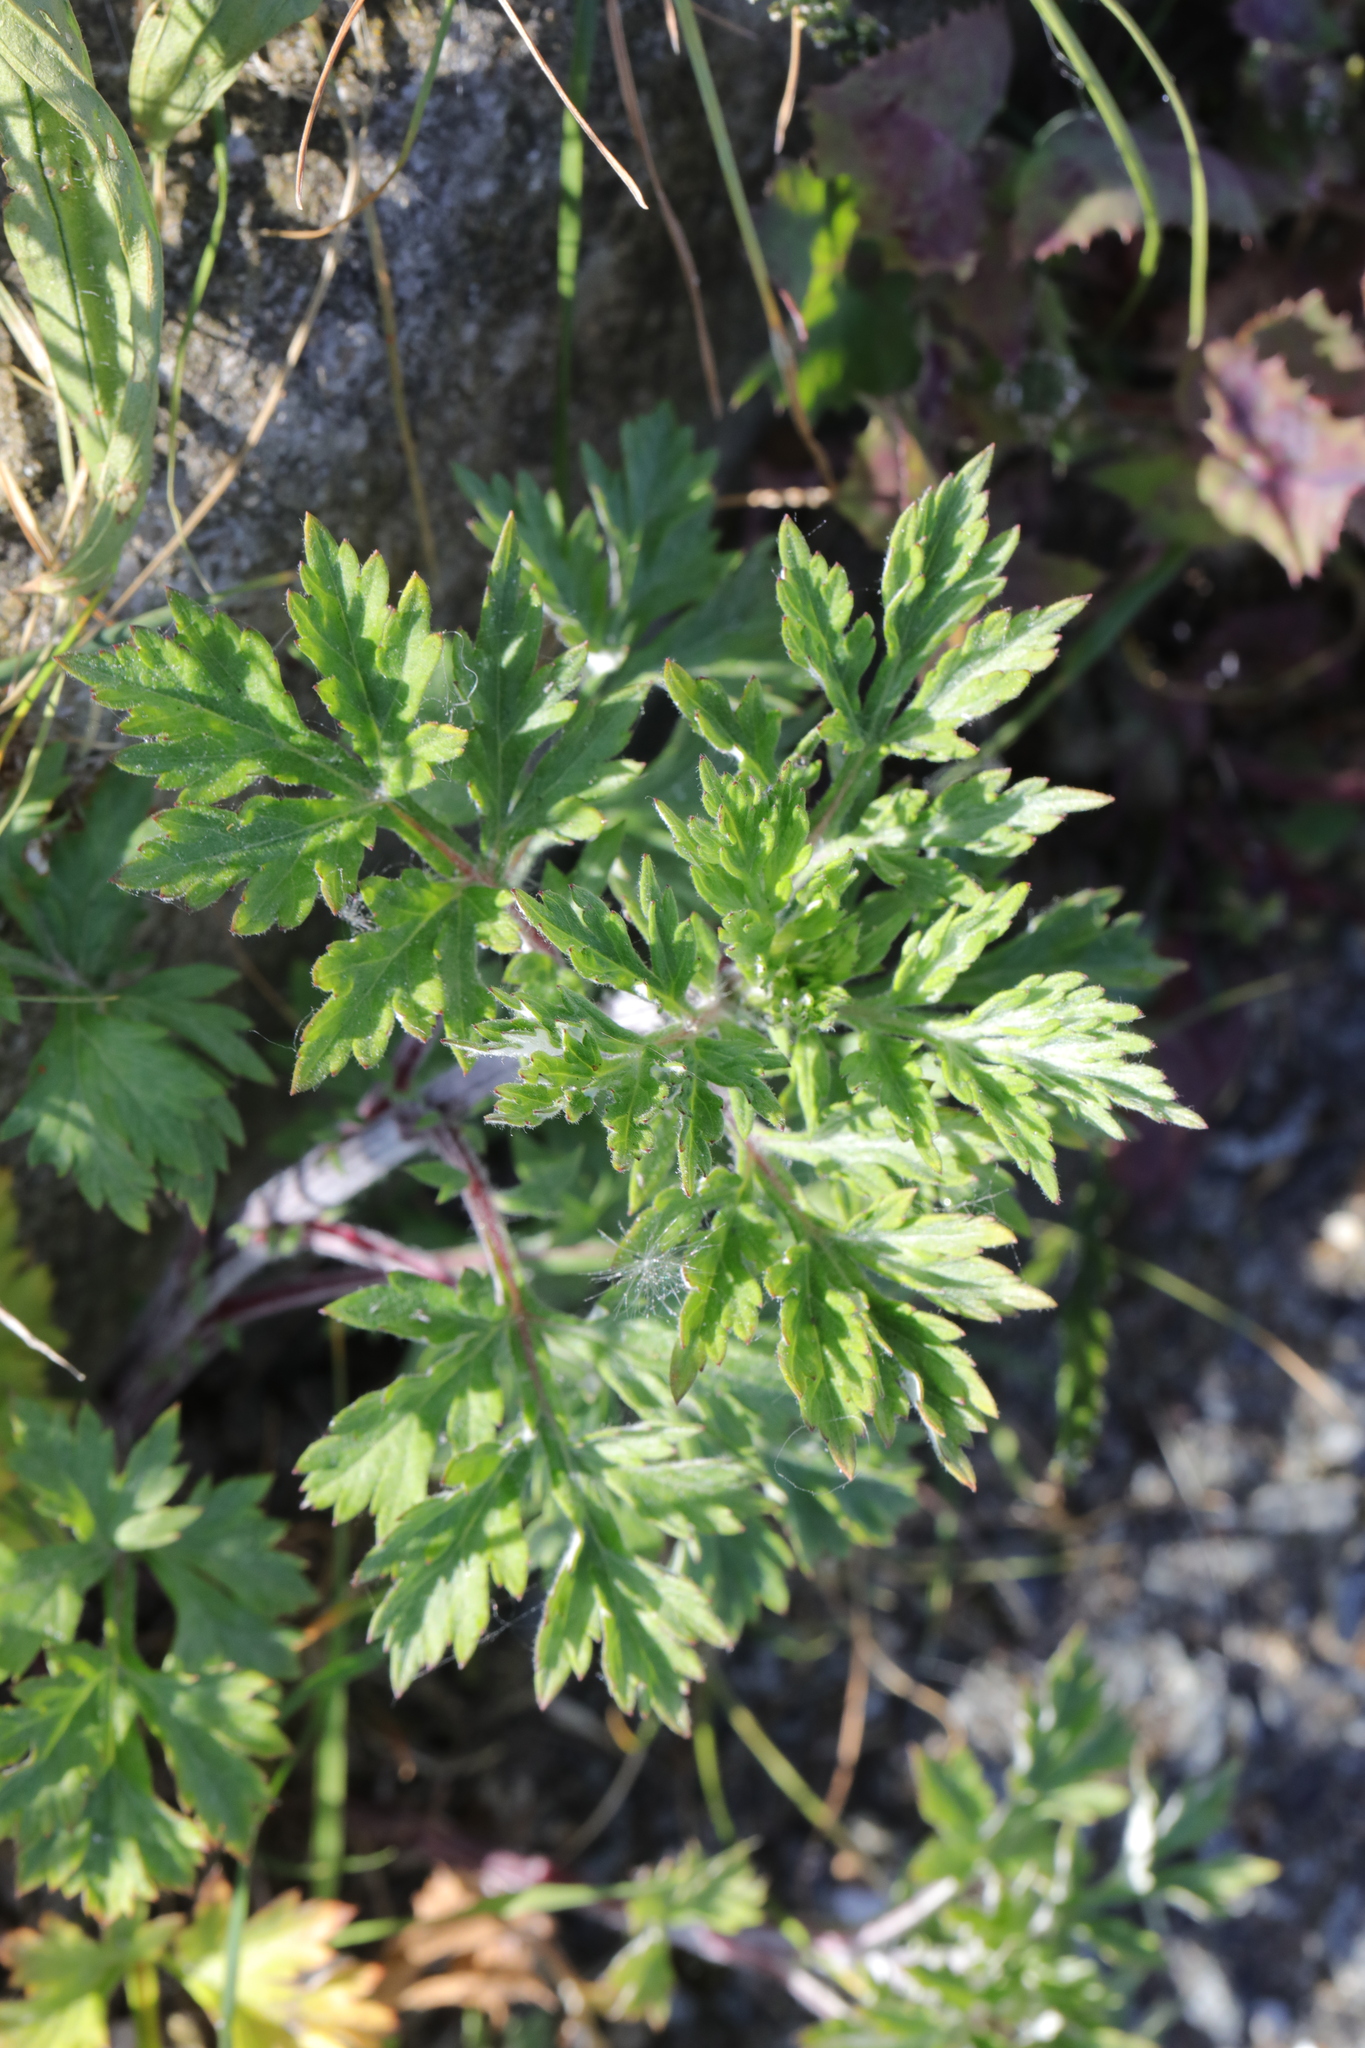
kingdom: Plantae
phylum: Tracheophyta
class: Magnoliopsida
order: Asterales
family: Asteraceae
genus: Artemisia
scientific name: Artemisia vulgaris
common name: Mugwort
